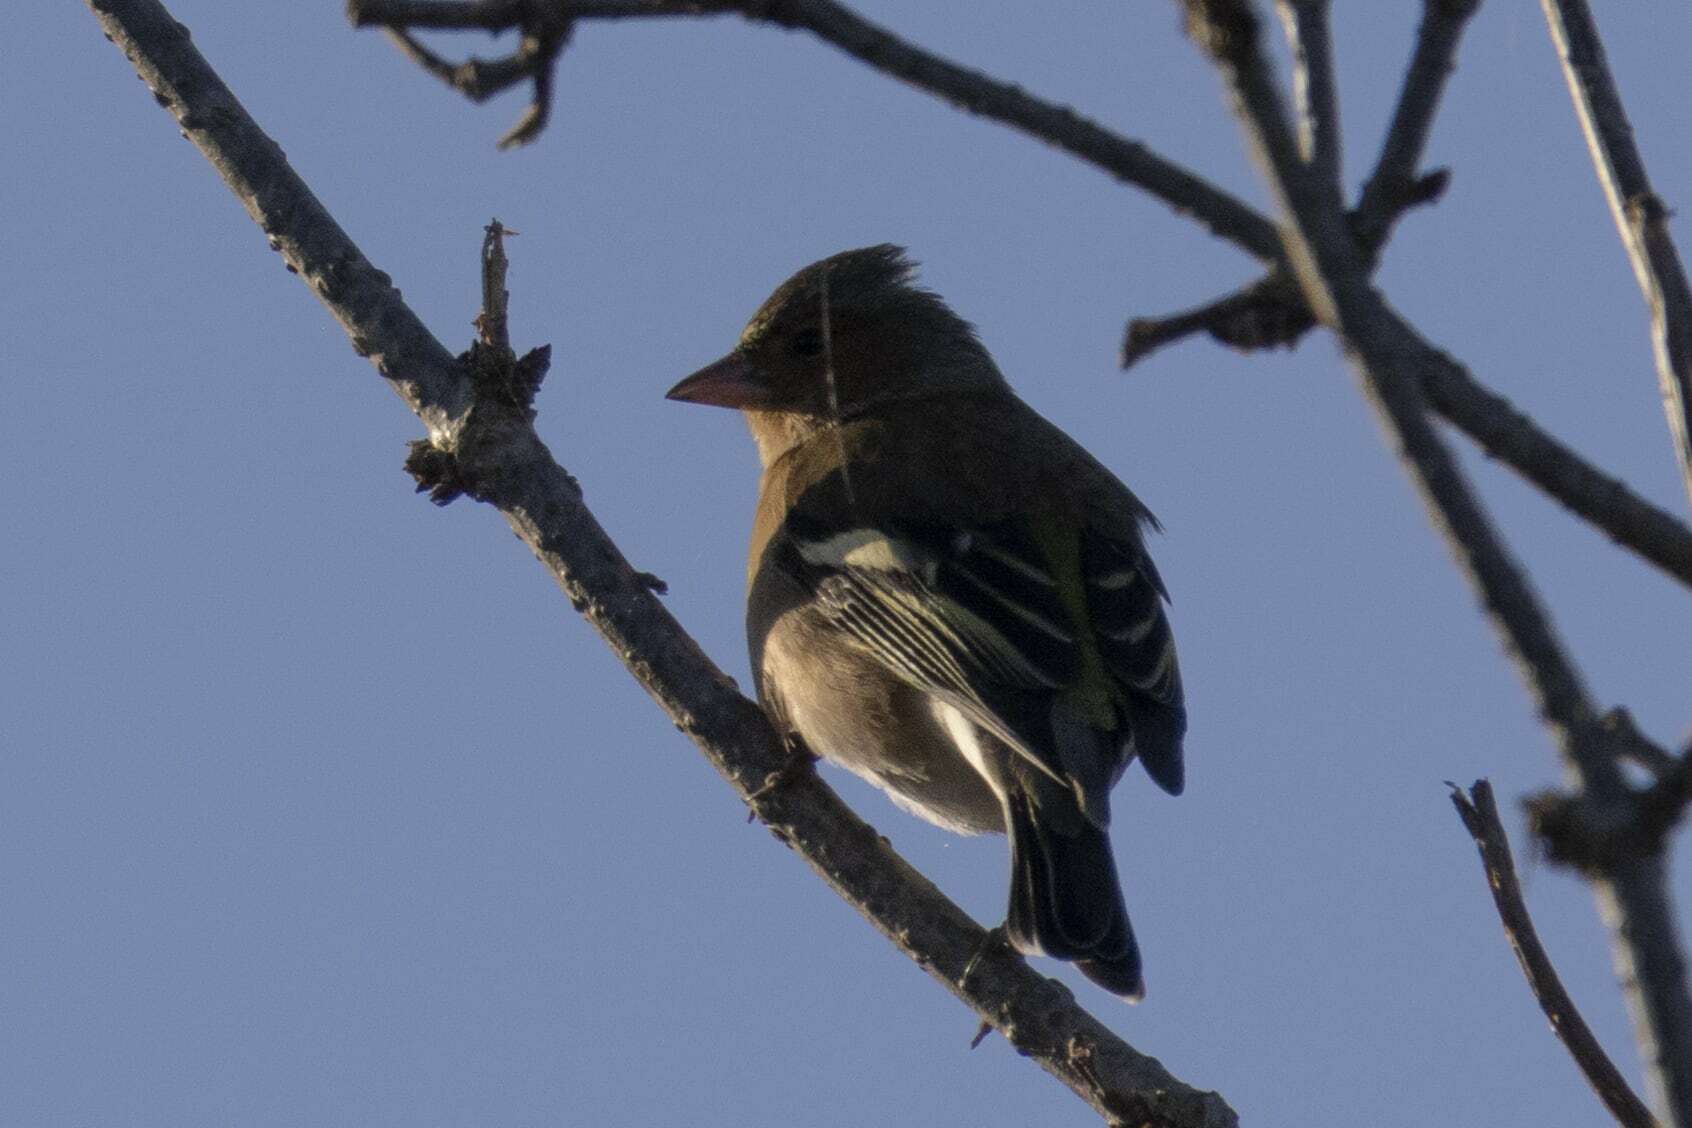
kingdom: Animalia
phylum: Chordata
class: Aves
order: Passeriformes
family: Fringillidae
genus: Fringilla
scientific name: Fringilla coelebs
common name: Common chaffinch
